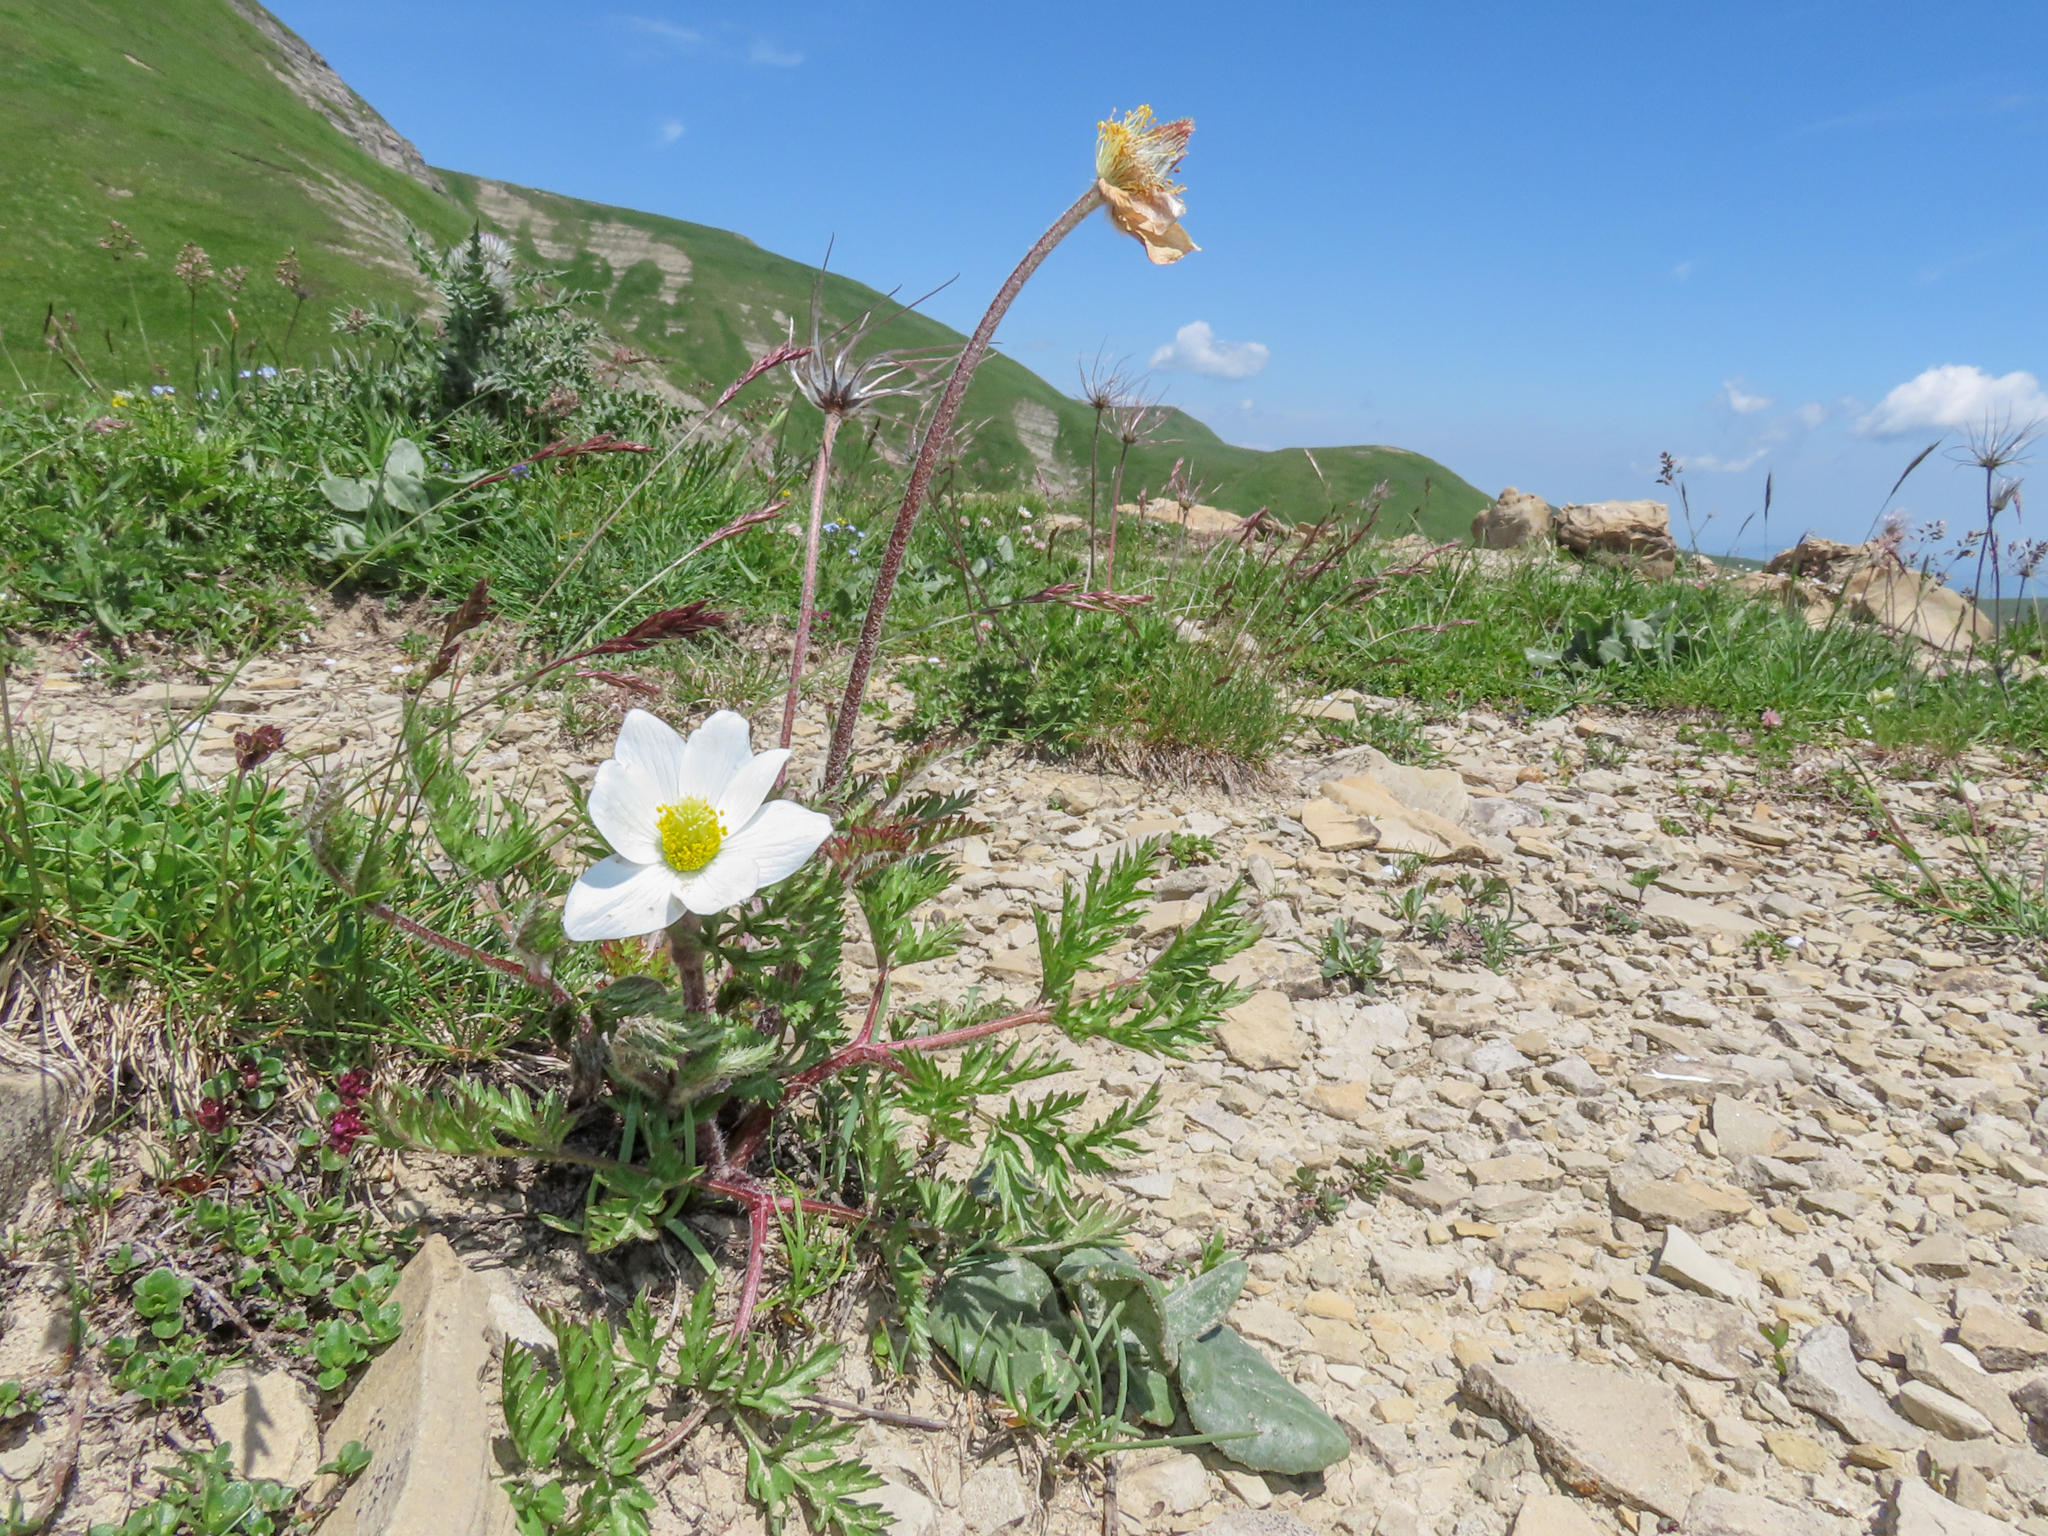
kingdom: Plantae
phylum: Tracheophyta
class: Magnoliopsida
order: Ranunculales
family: Ranunculaceae
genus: Pulsatilla
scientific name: Pulsatilla alpina
